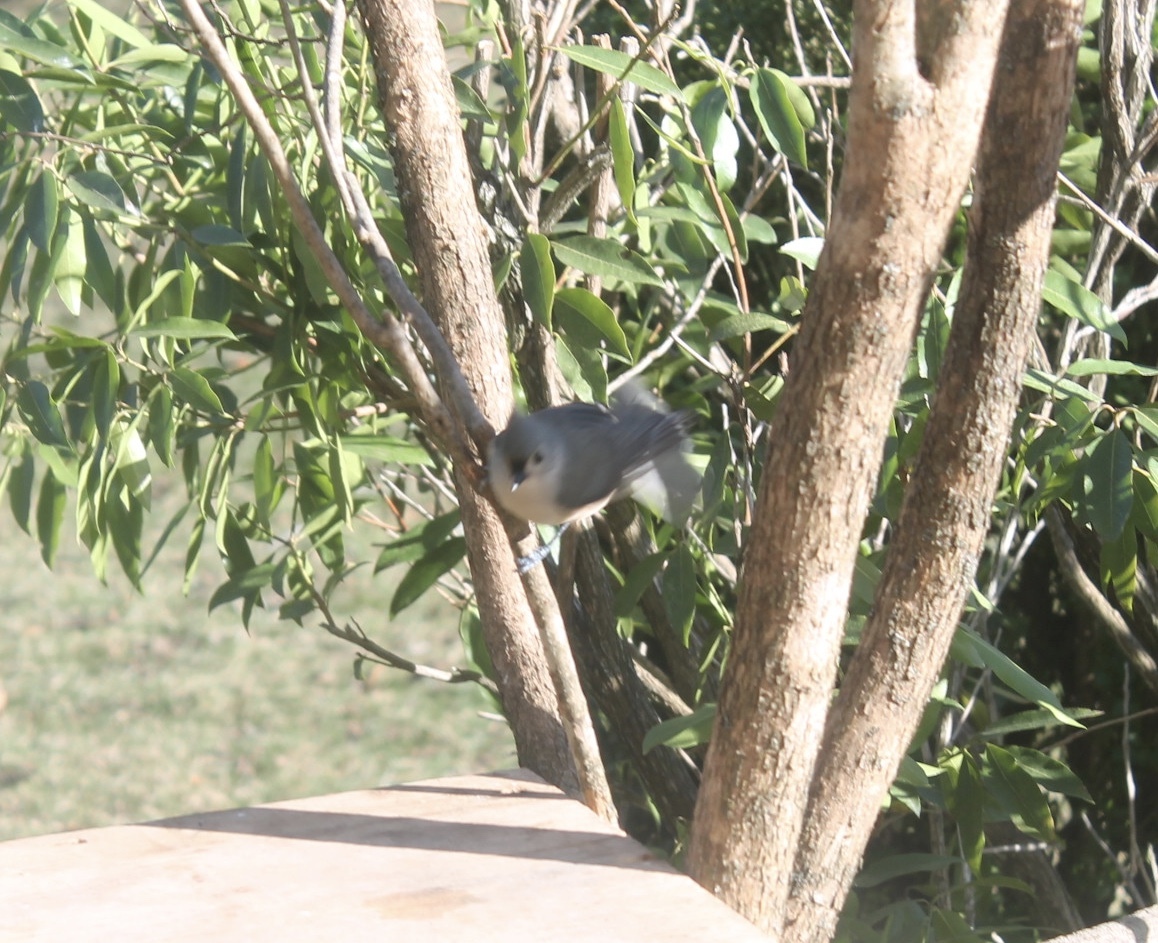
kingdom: Animalia
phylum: Chordata
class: Aves
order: Passeriformes
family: Paridae
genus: Baeolophus
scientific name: Baeolophus bicolor
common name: Tufted titmouse
